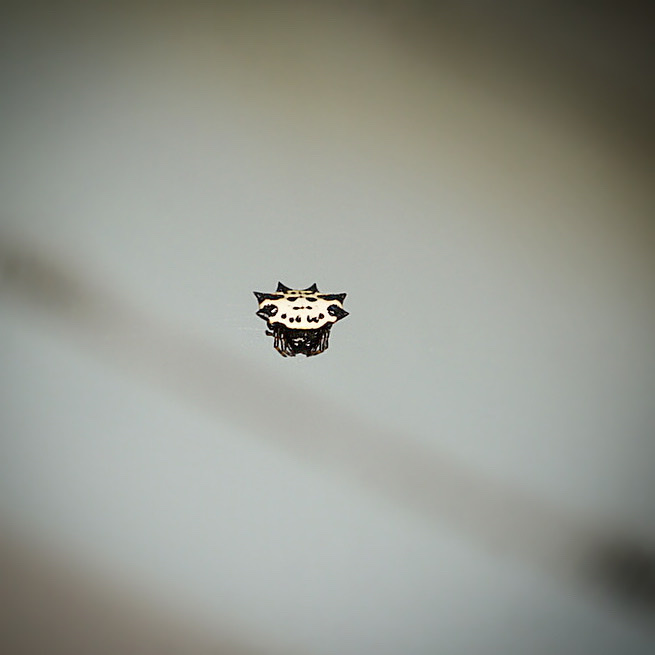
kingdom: Animalia
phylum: Arthropoda
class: Arachnida
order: Araneae
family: Araneidae
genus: Gasteracantha
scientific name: Gasteracantha cancriformis
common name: Orb weavers
